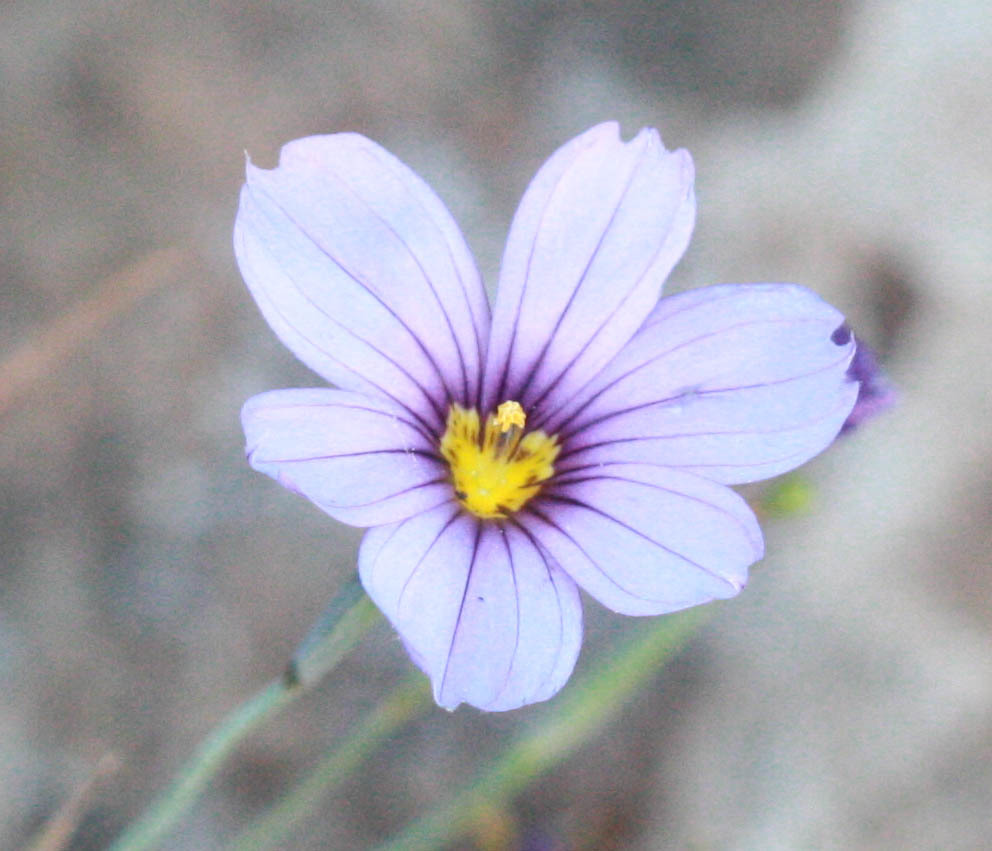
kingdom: Plantae
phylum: Tracheophyta
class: Liliopsida
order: Asparagales
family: Iridaceae
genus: Sisyrinchium
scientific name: Sisyrinchium bellum
